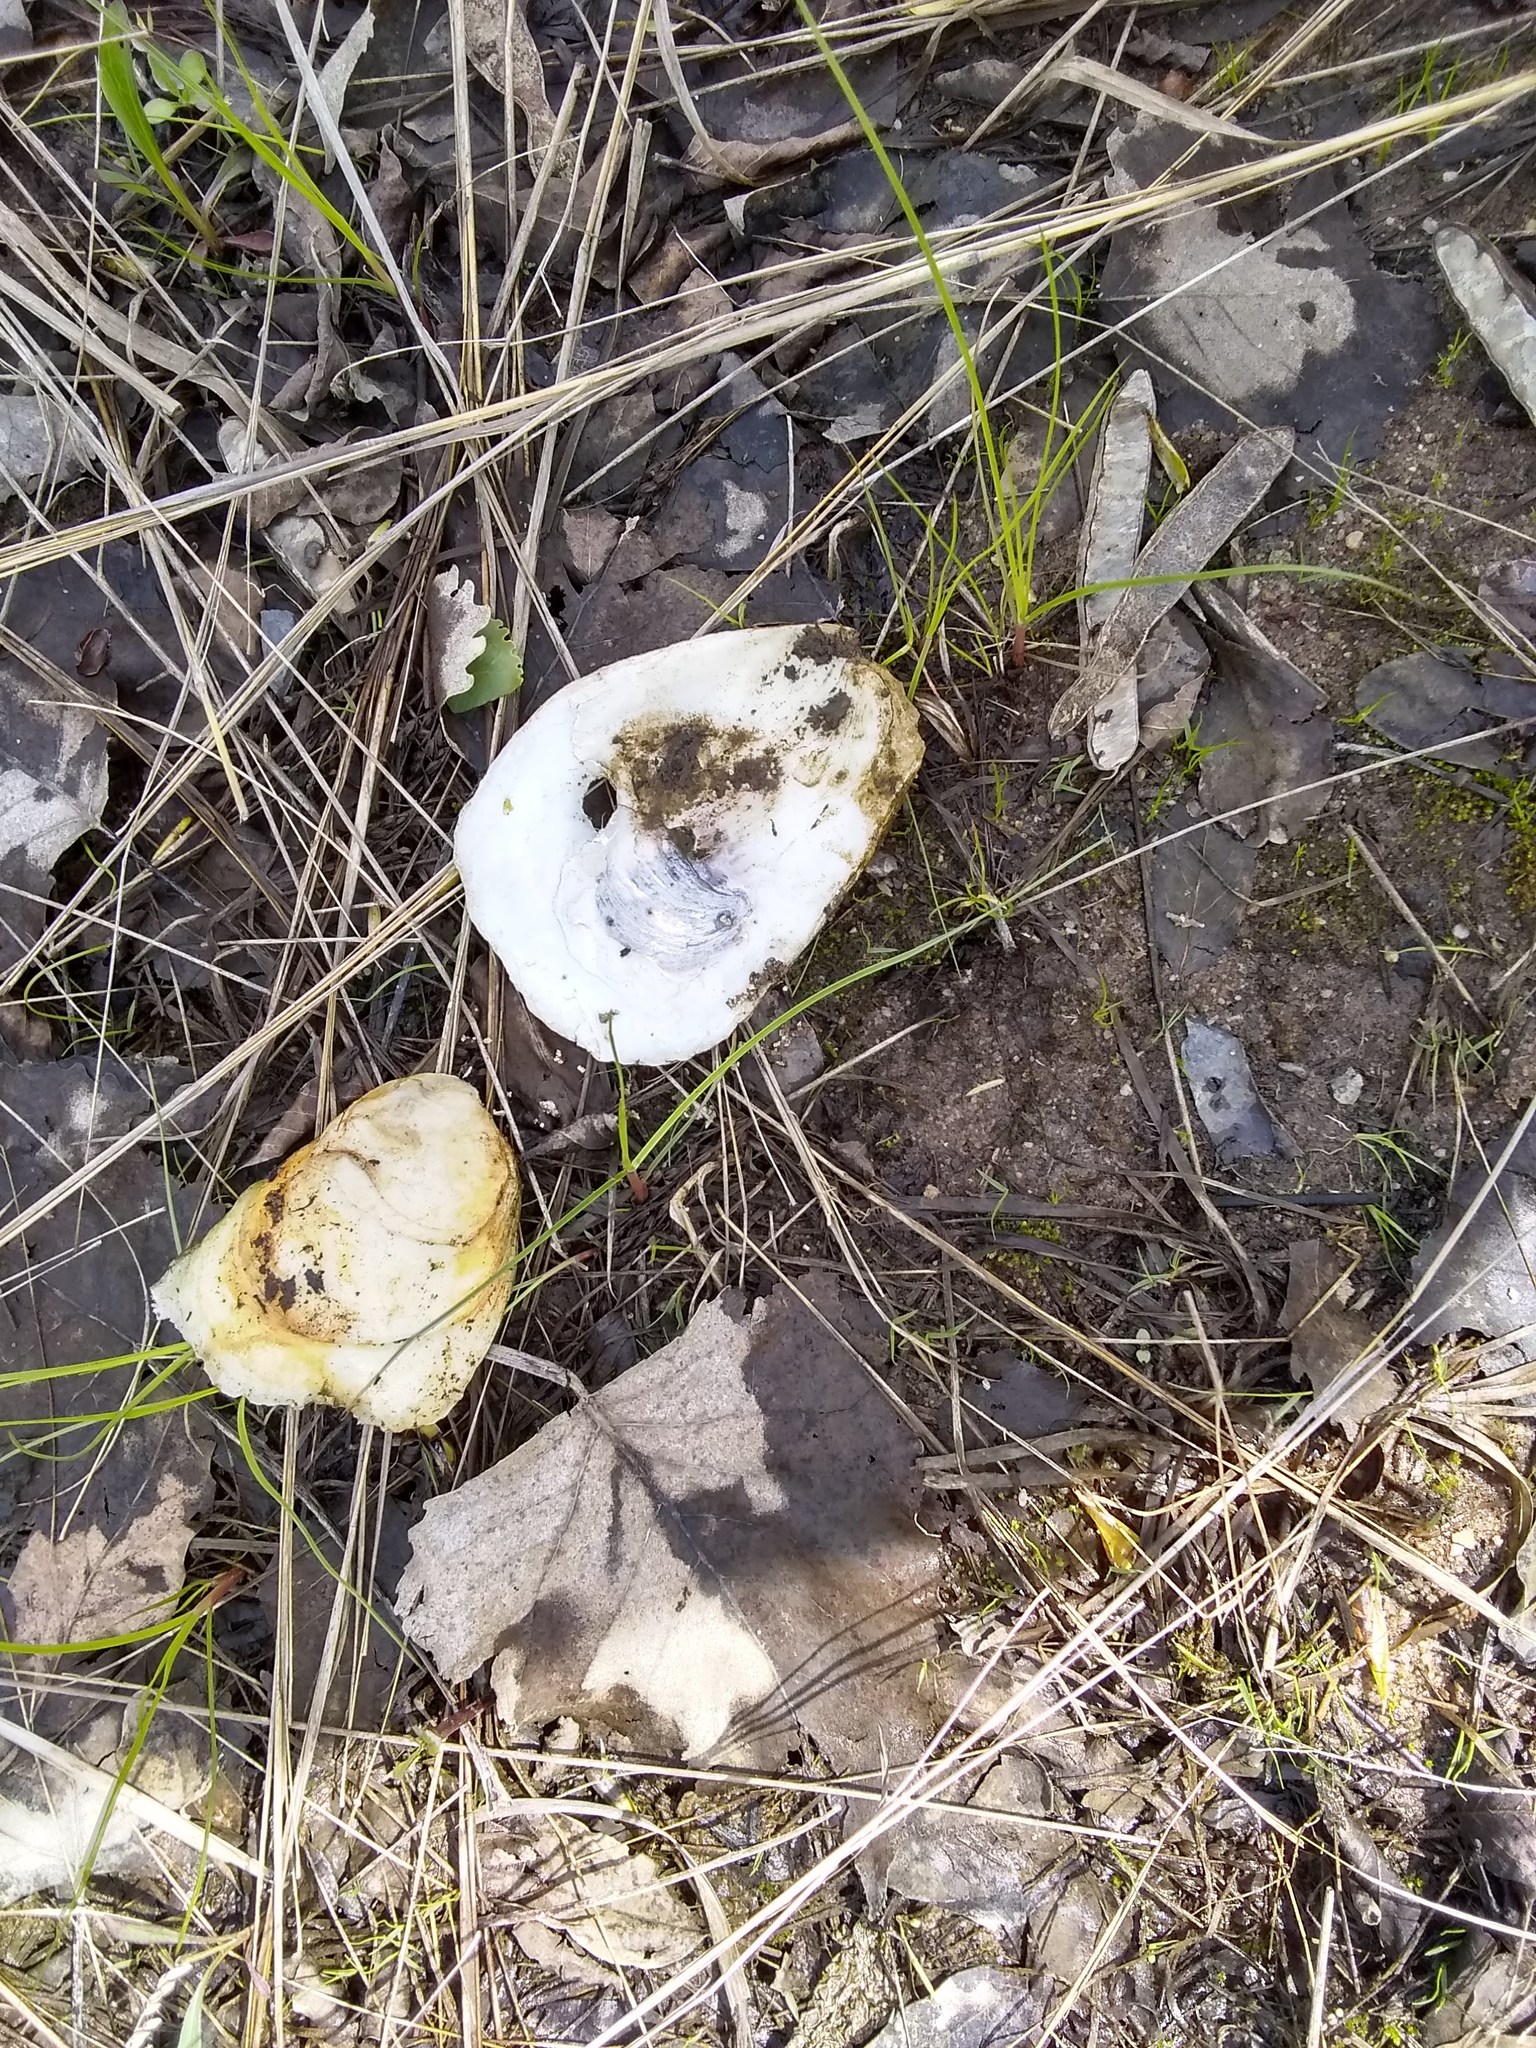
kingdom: Animalia
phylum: Mollusca
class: Bivalvia
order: Ostreida
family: Ostreidae
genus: Crassostrea
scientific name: Crassostrea virginica
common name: American oyster
